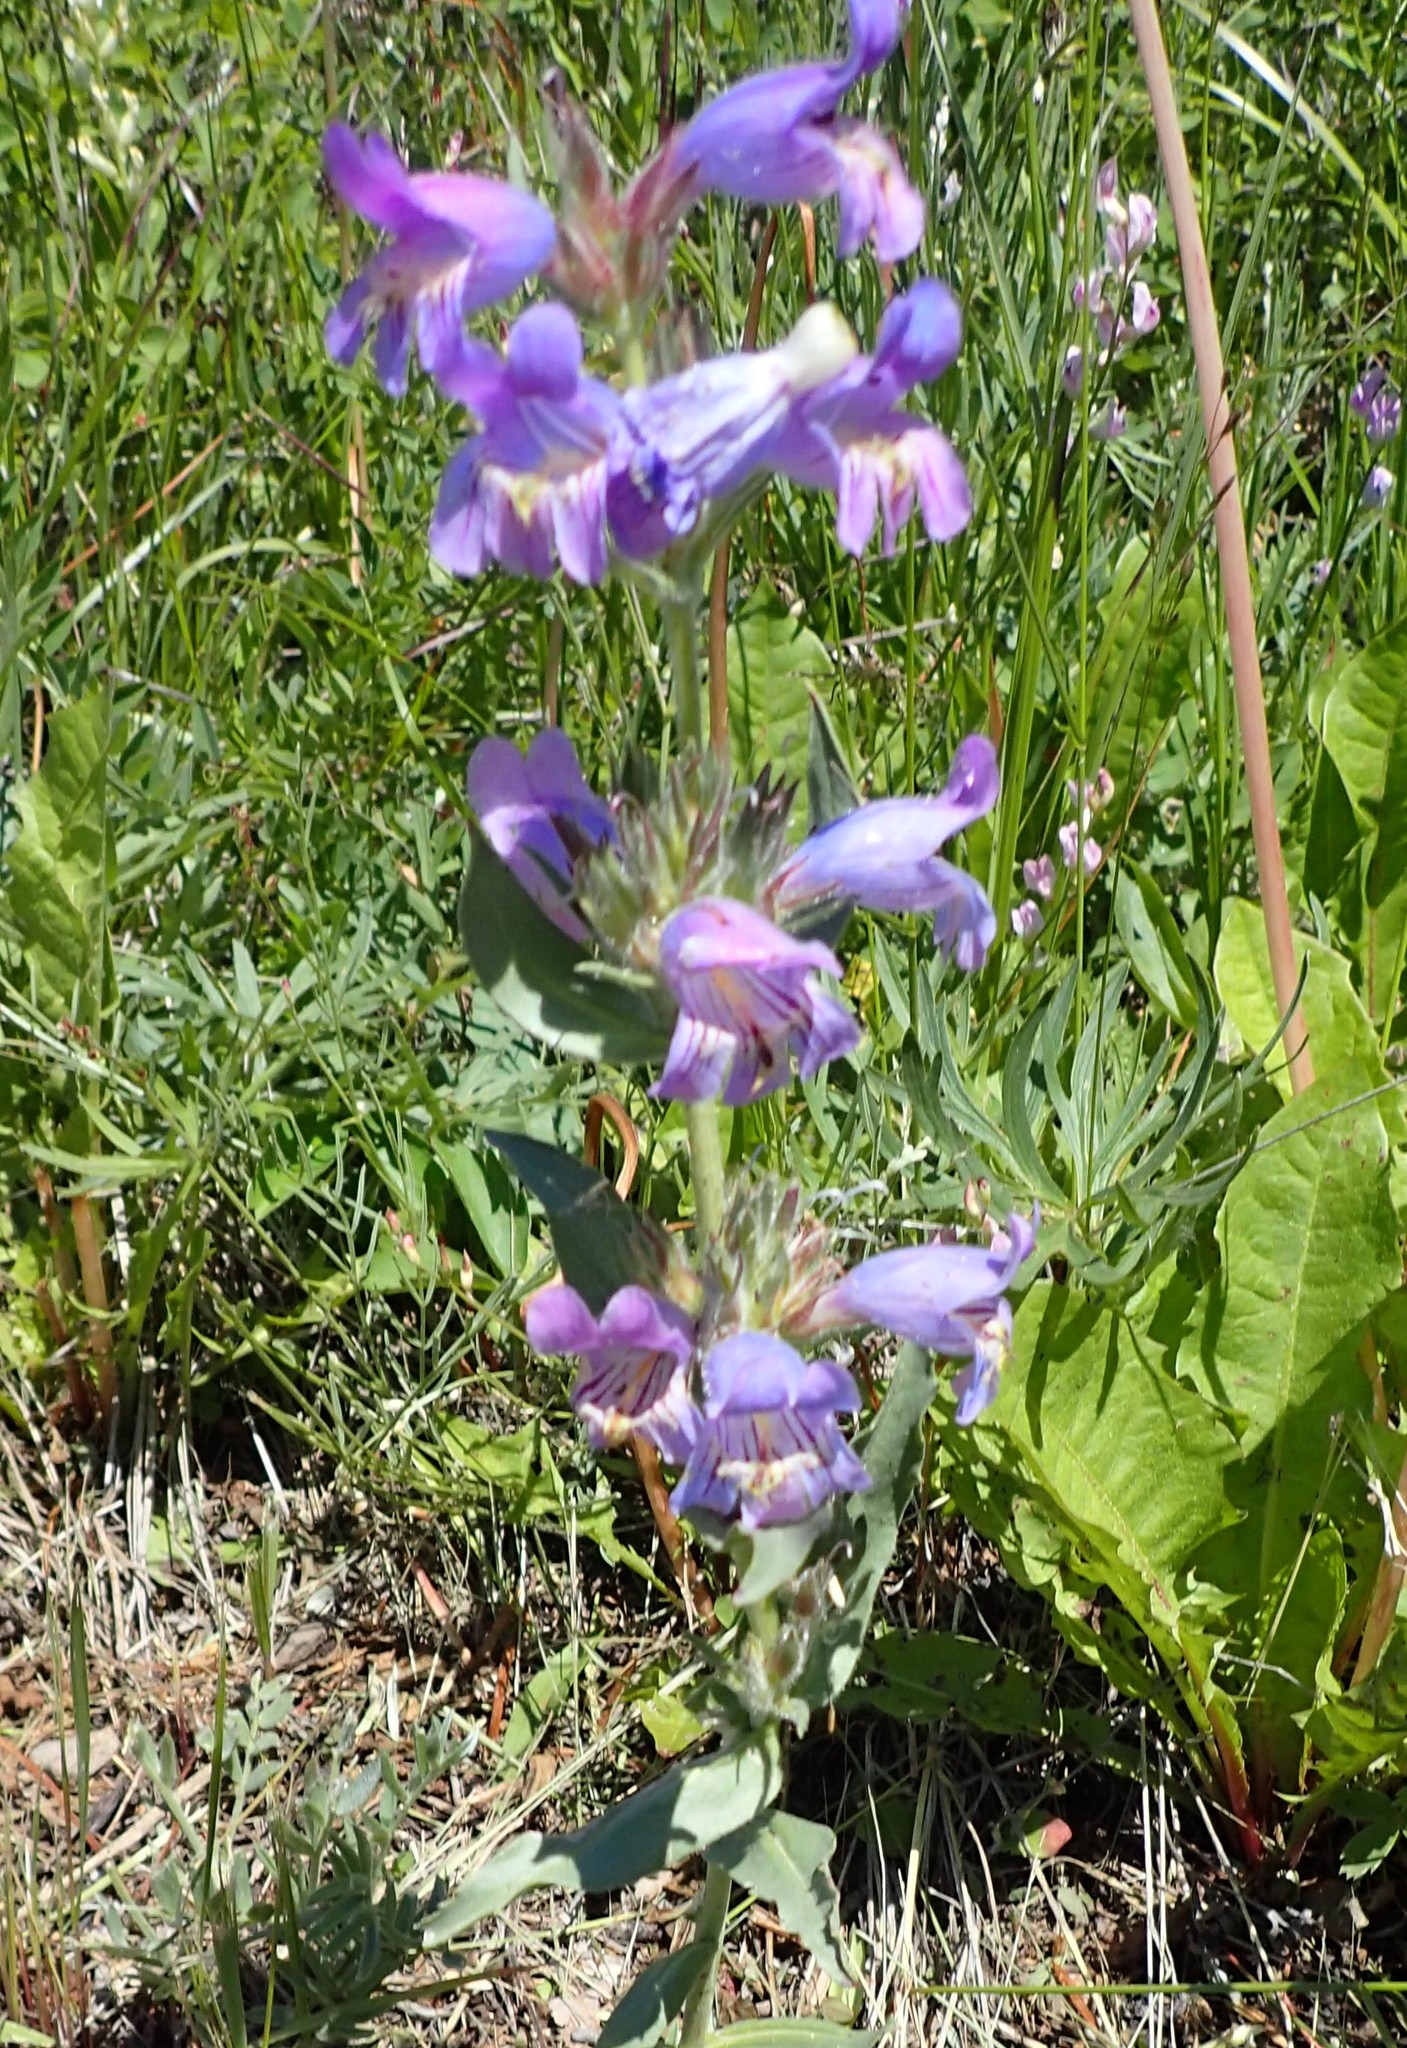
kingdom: Plantae
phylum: Tracheophyta
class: Magnoliopsida
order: Lamiales
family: Plantaginaceae
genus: Penstemon
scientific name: Penstemon eriantherus
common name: Crested beardtongue
